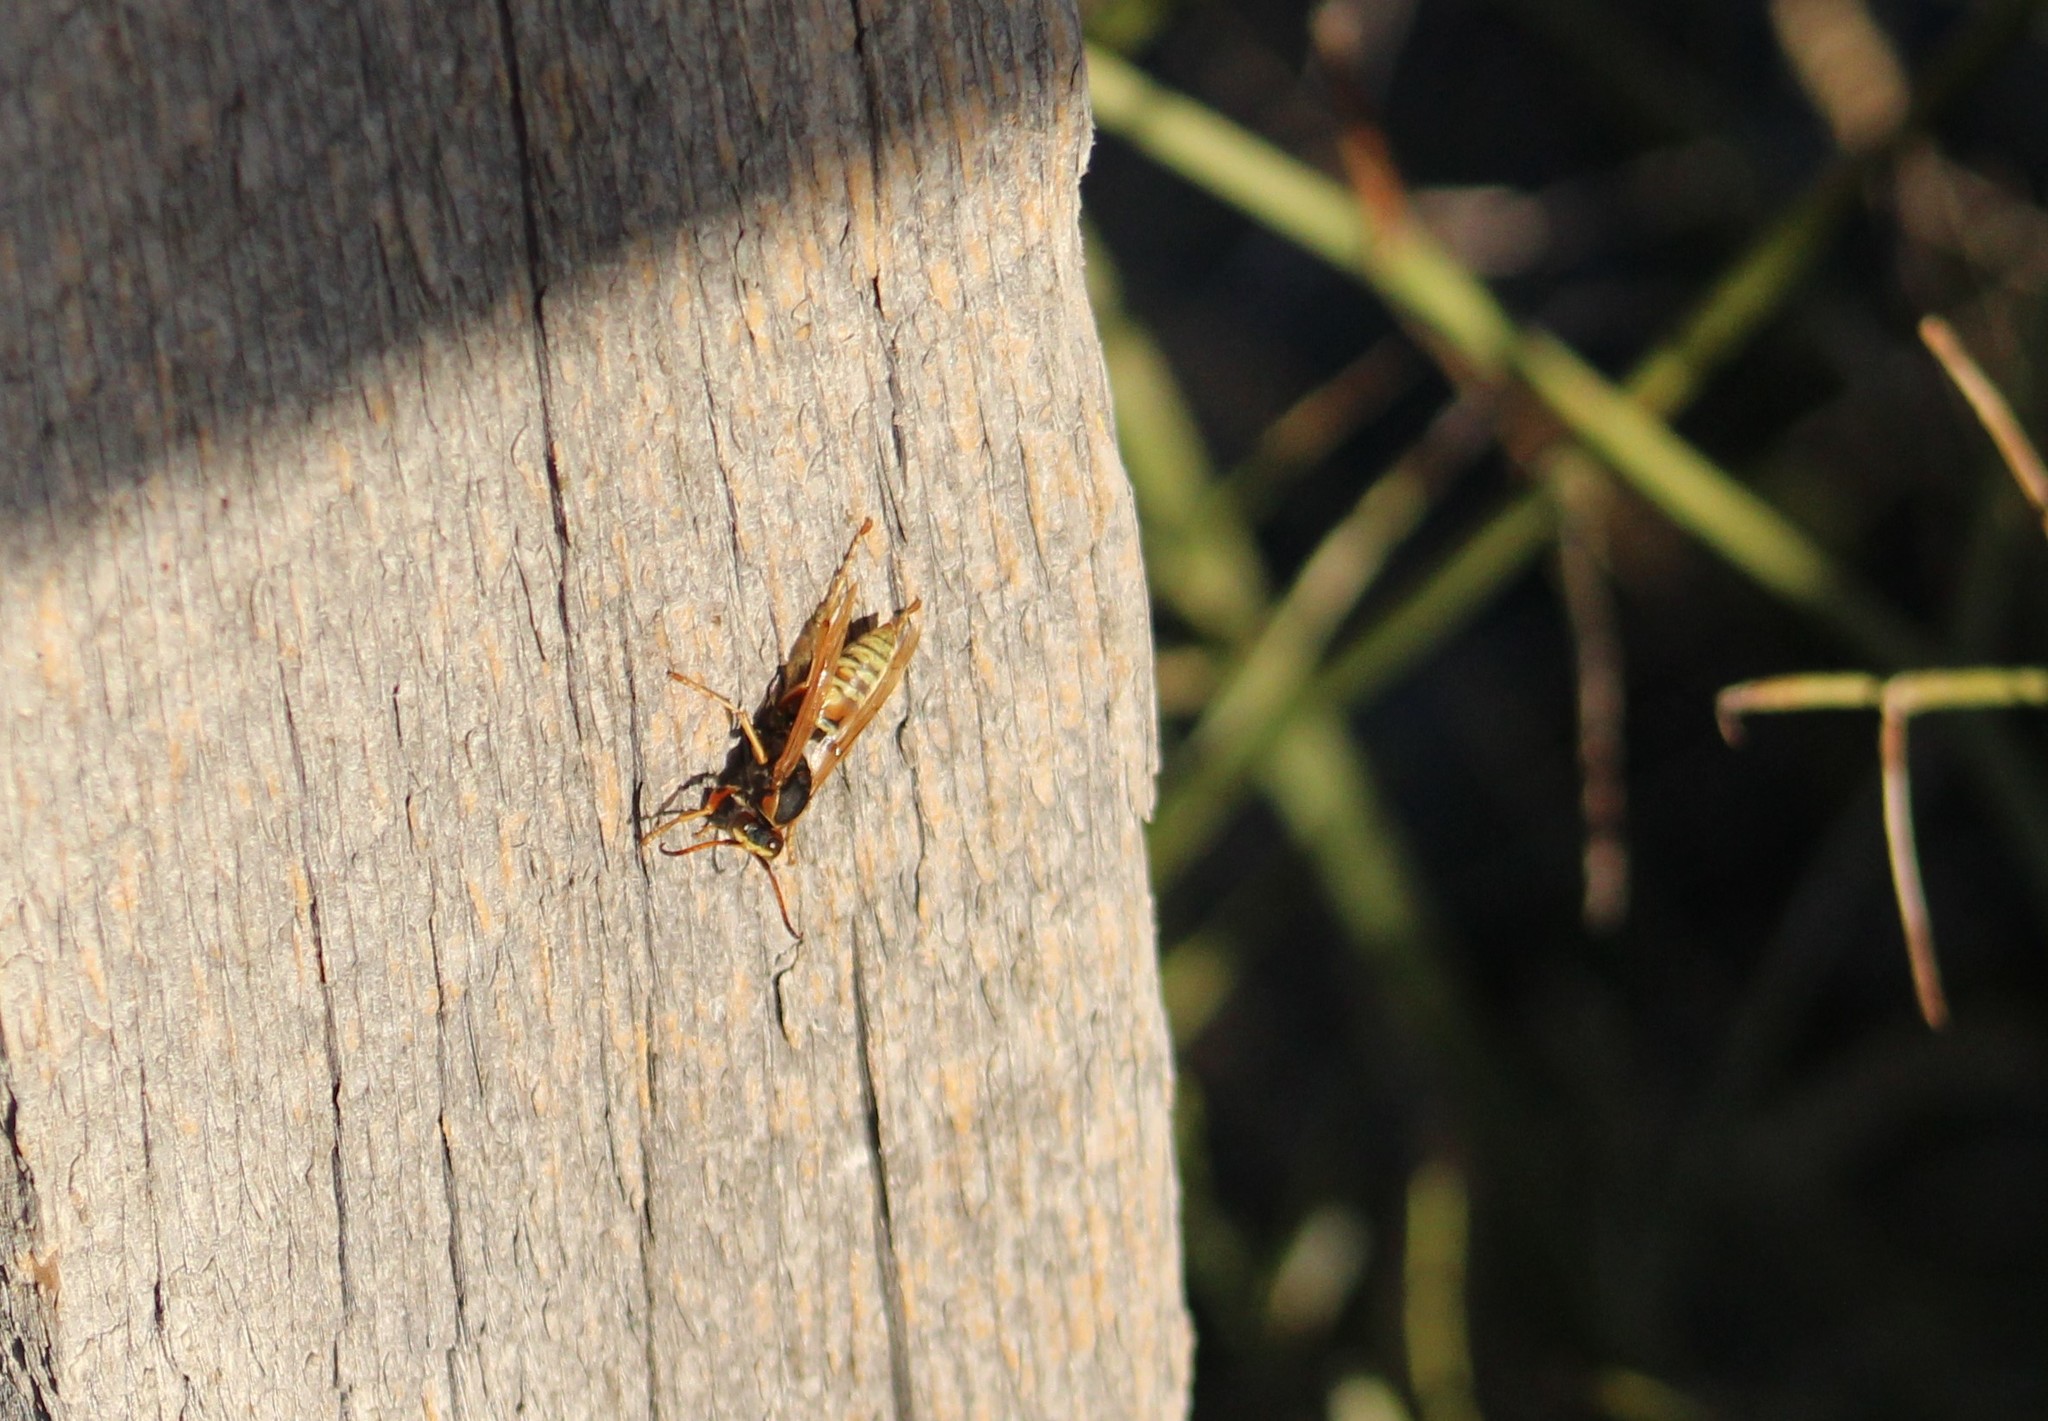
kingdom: Animalia
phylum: Arthropoda
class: Insecta
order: Hymenoptera
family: Eumenidae
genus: Polistes
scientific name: Polistes aurifer
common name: Paper wasp
